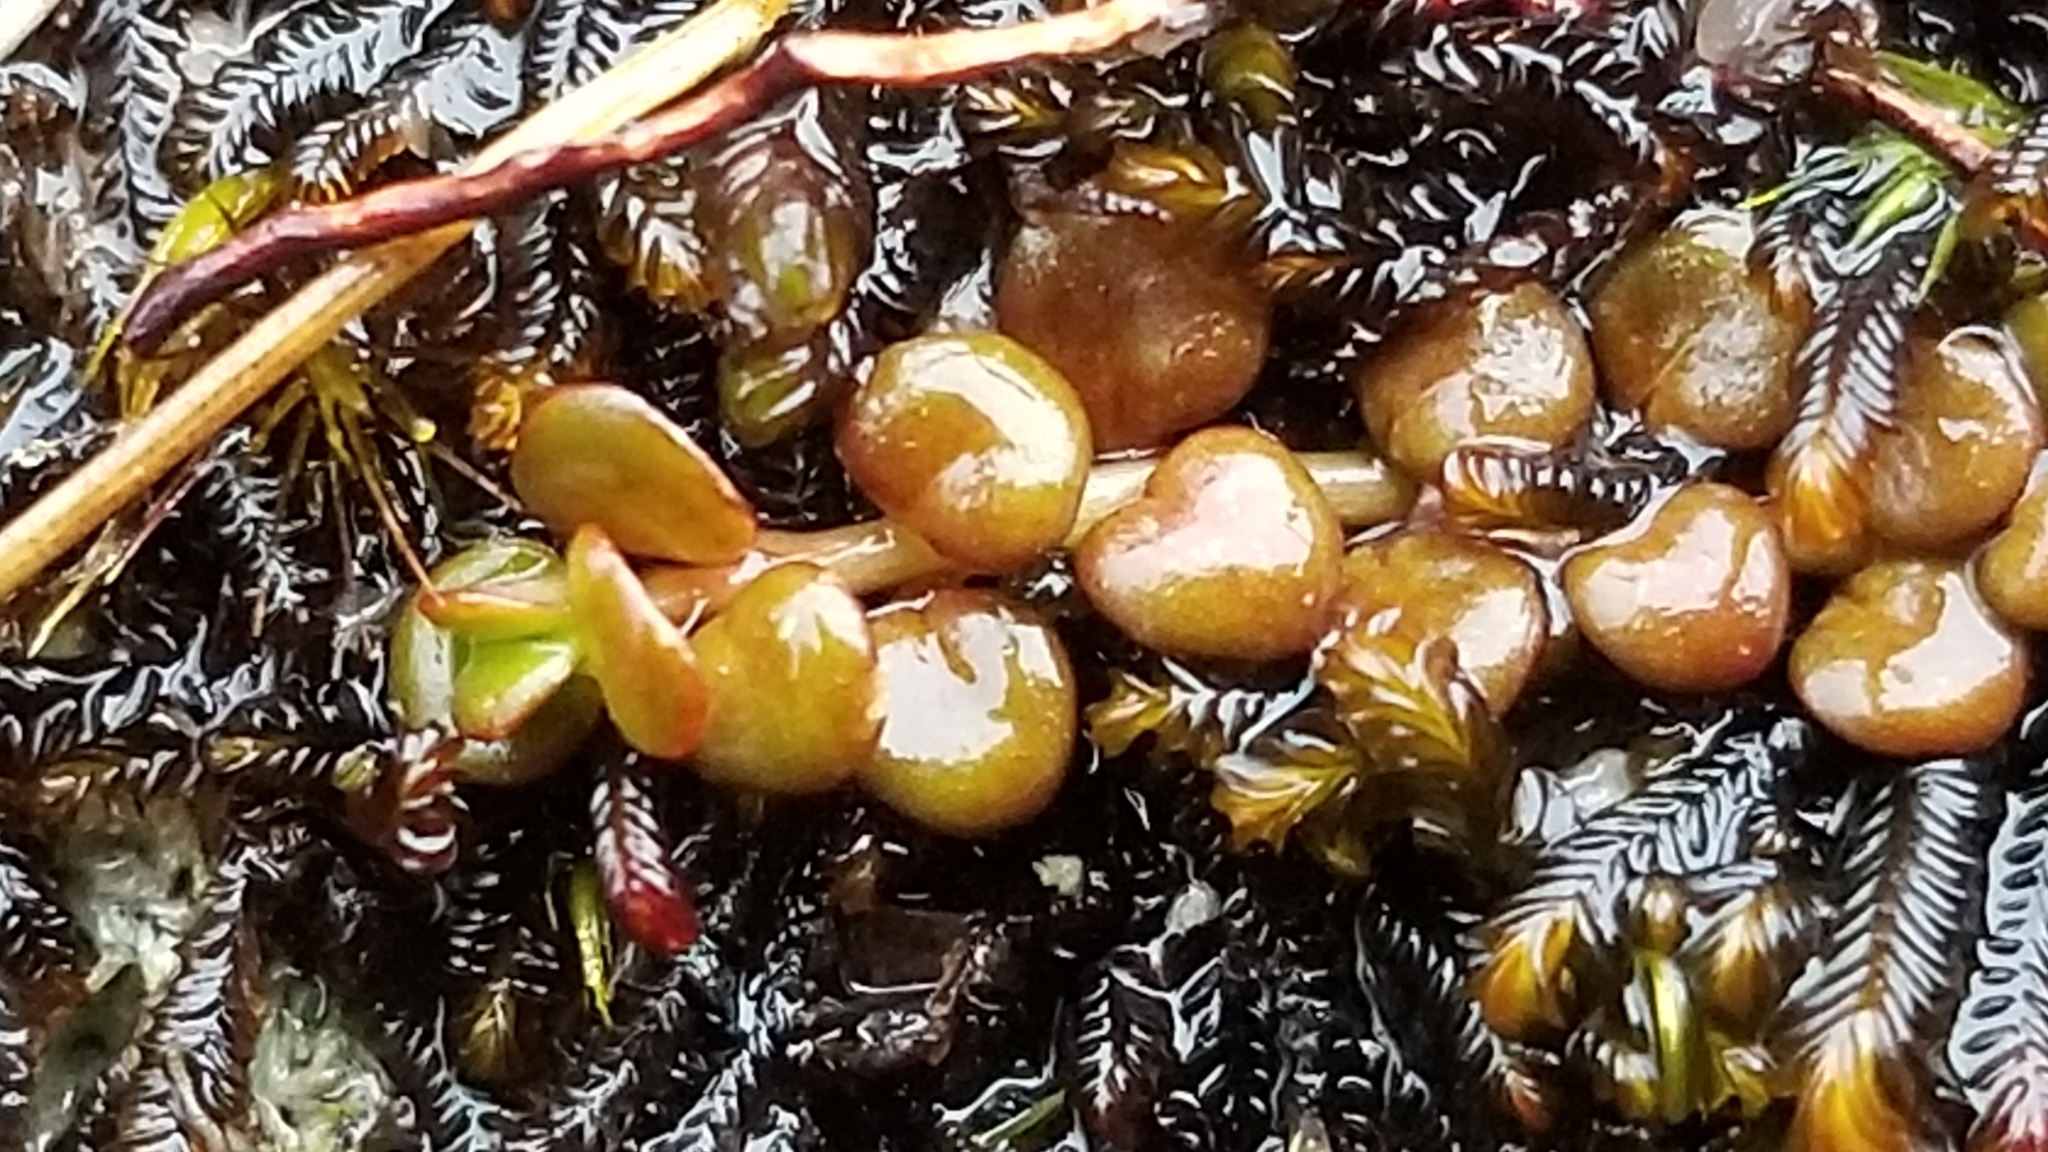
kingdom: Plantae
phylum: Tracheophyta
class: Magnoliopsida
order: Myrtales
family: Onagraceae
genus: Epilobium
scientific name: Epilobium pernitens
